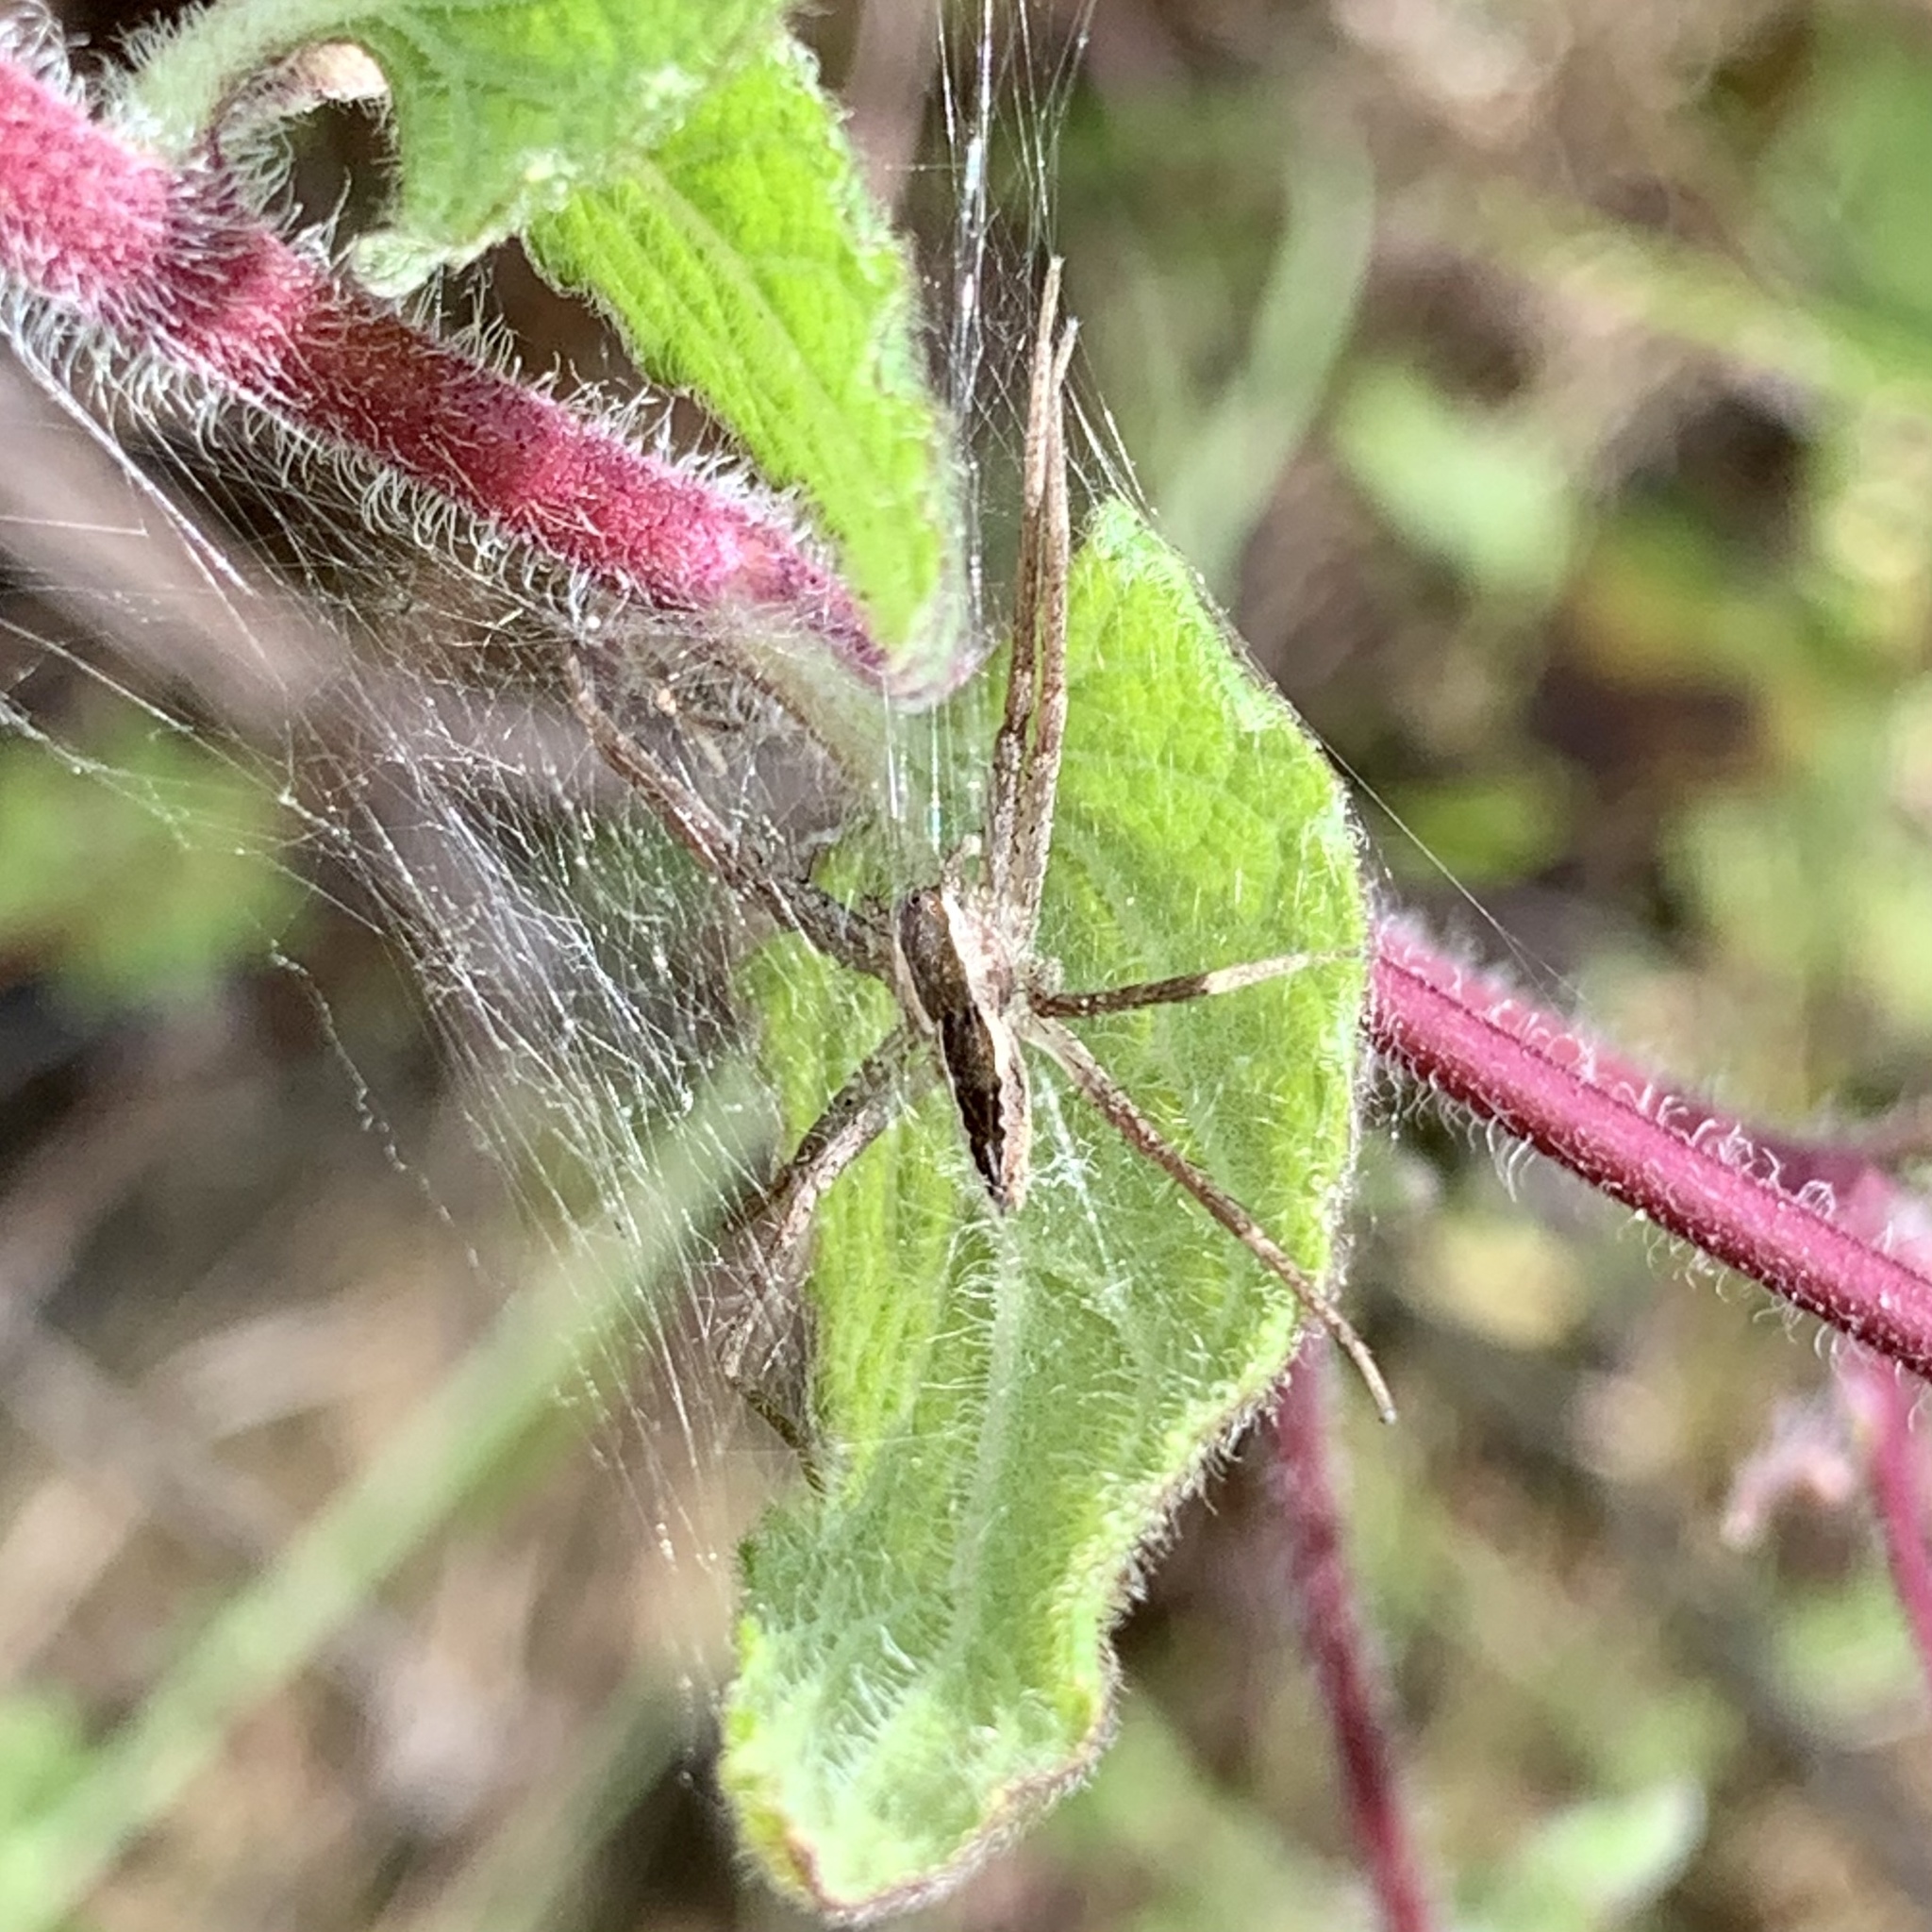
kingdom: Animalia
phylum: Arthropoda
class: Arachnida
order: Araneae
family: Pisauridae
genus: Pisaurina
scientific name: Pisaurina mira
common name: American nursery web spider
